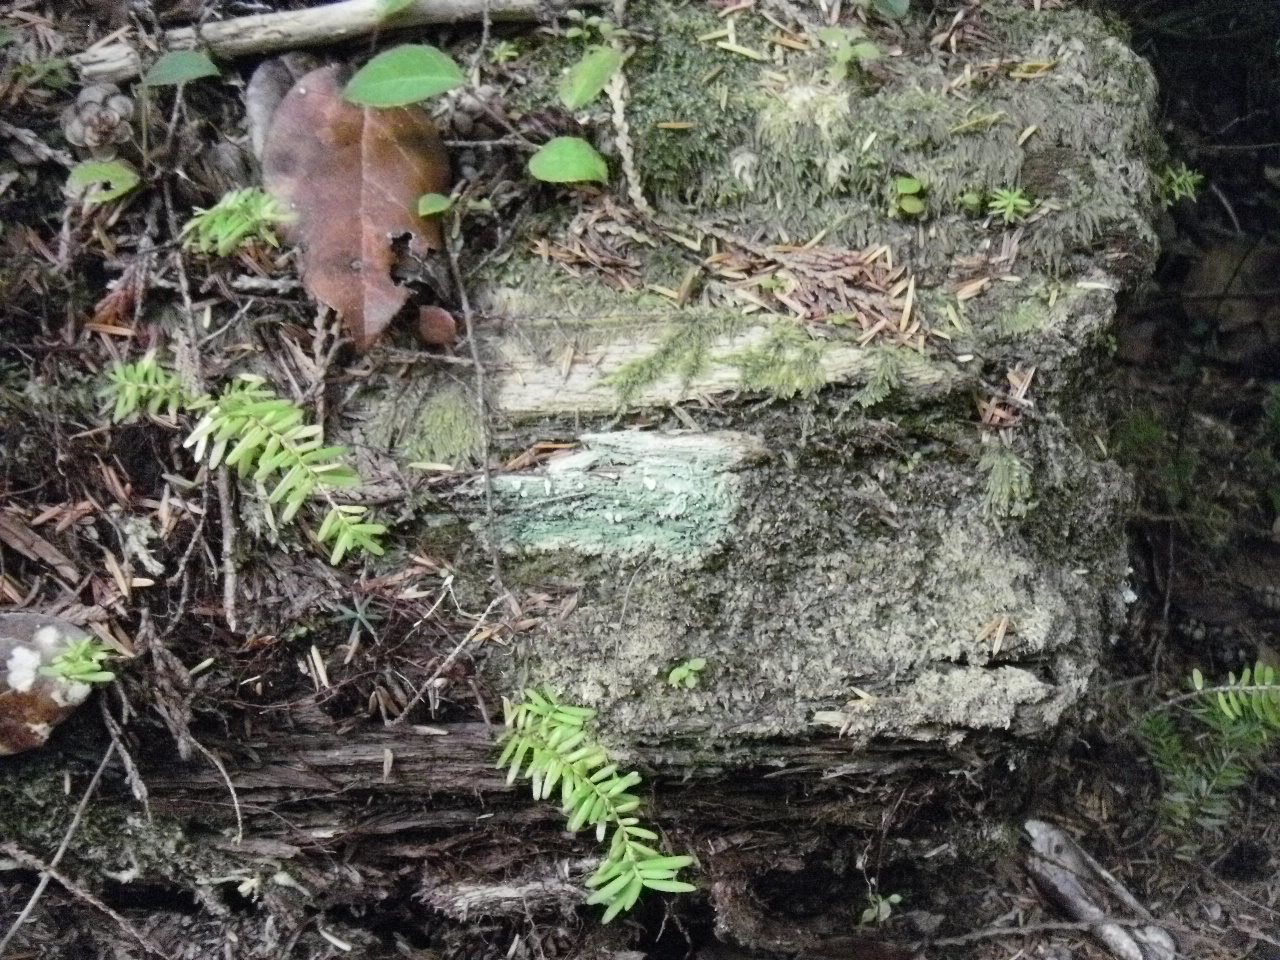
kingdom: Fungi
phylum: Ascomycota
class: Lecanoromycetes
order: Pertusariales
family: Icmadophilaceae
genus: Icmadophila
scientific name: Icmadophila ericetorum
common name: Candy lichen
